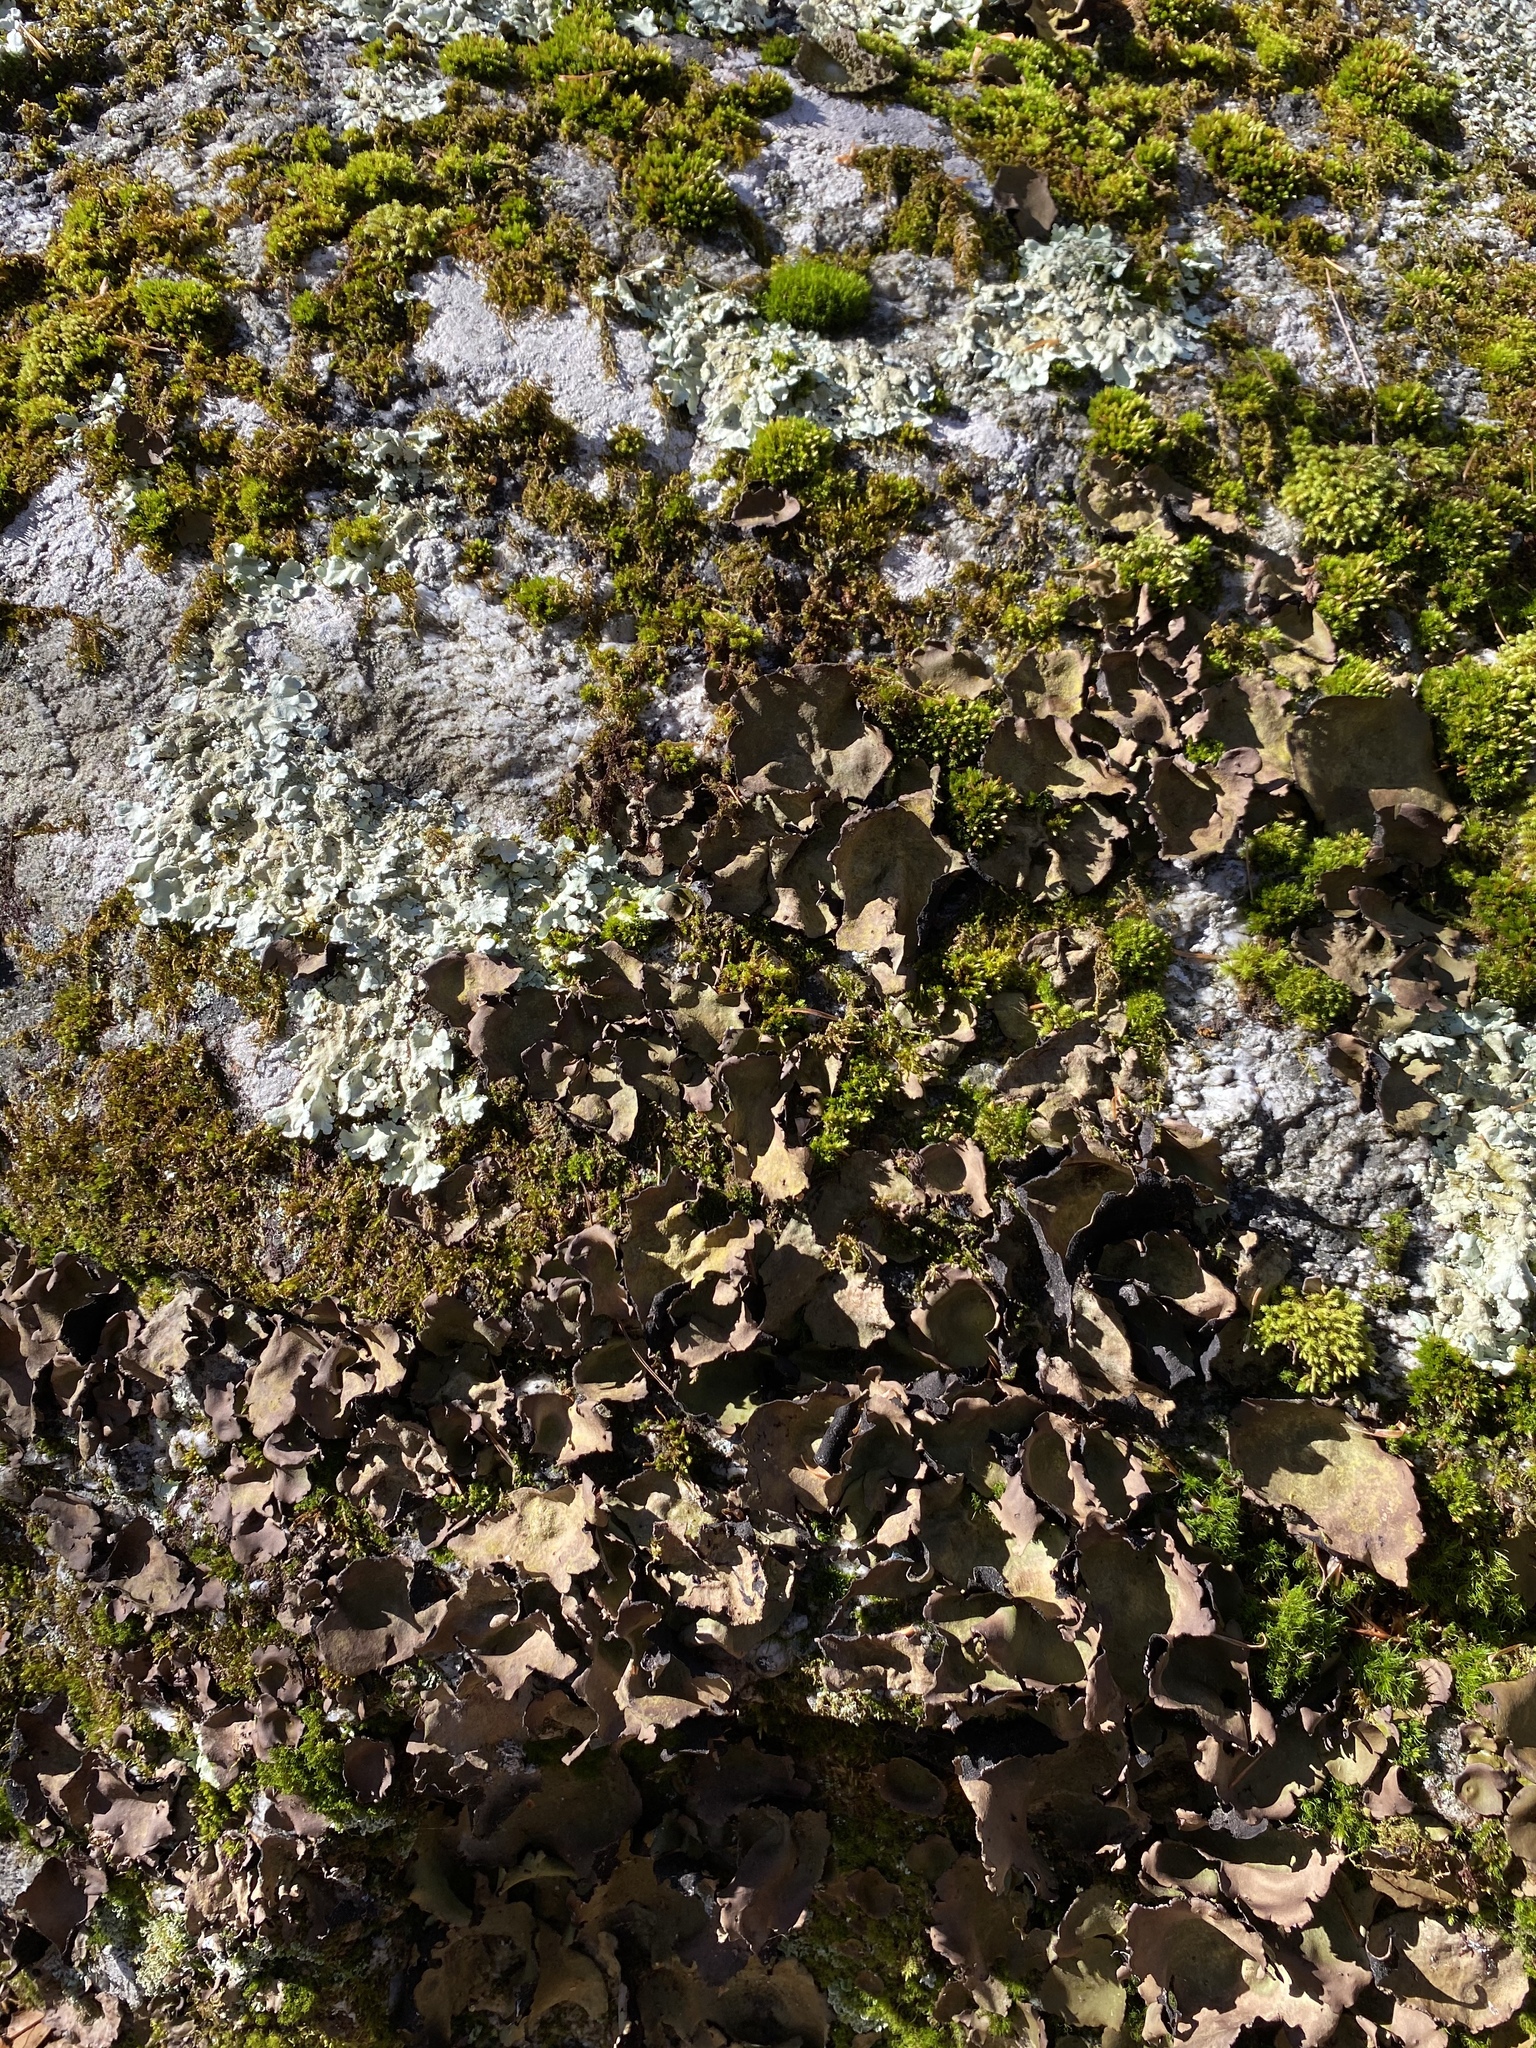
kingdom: Fungi
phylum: Ascomycota
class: Lecanoromycetes
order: Umbilicariales
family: Umbilicariaceae
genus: Umbilicaria
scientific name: Umbilicaria mammulata
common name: Smooth rock tripe
